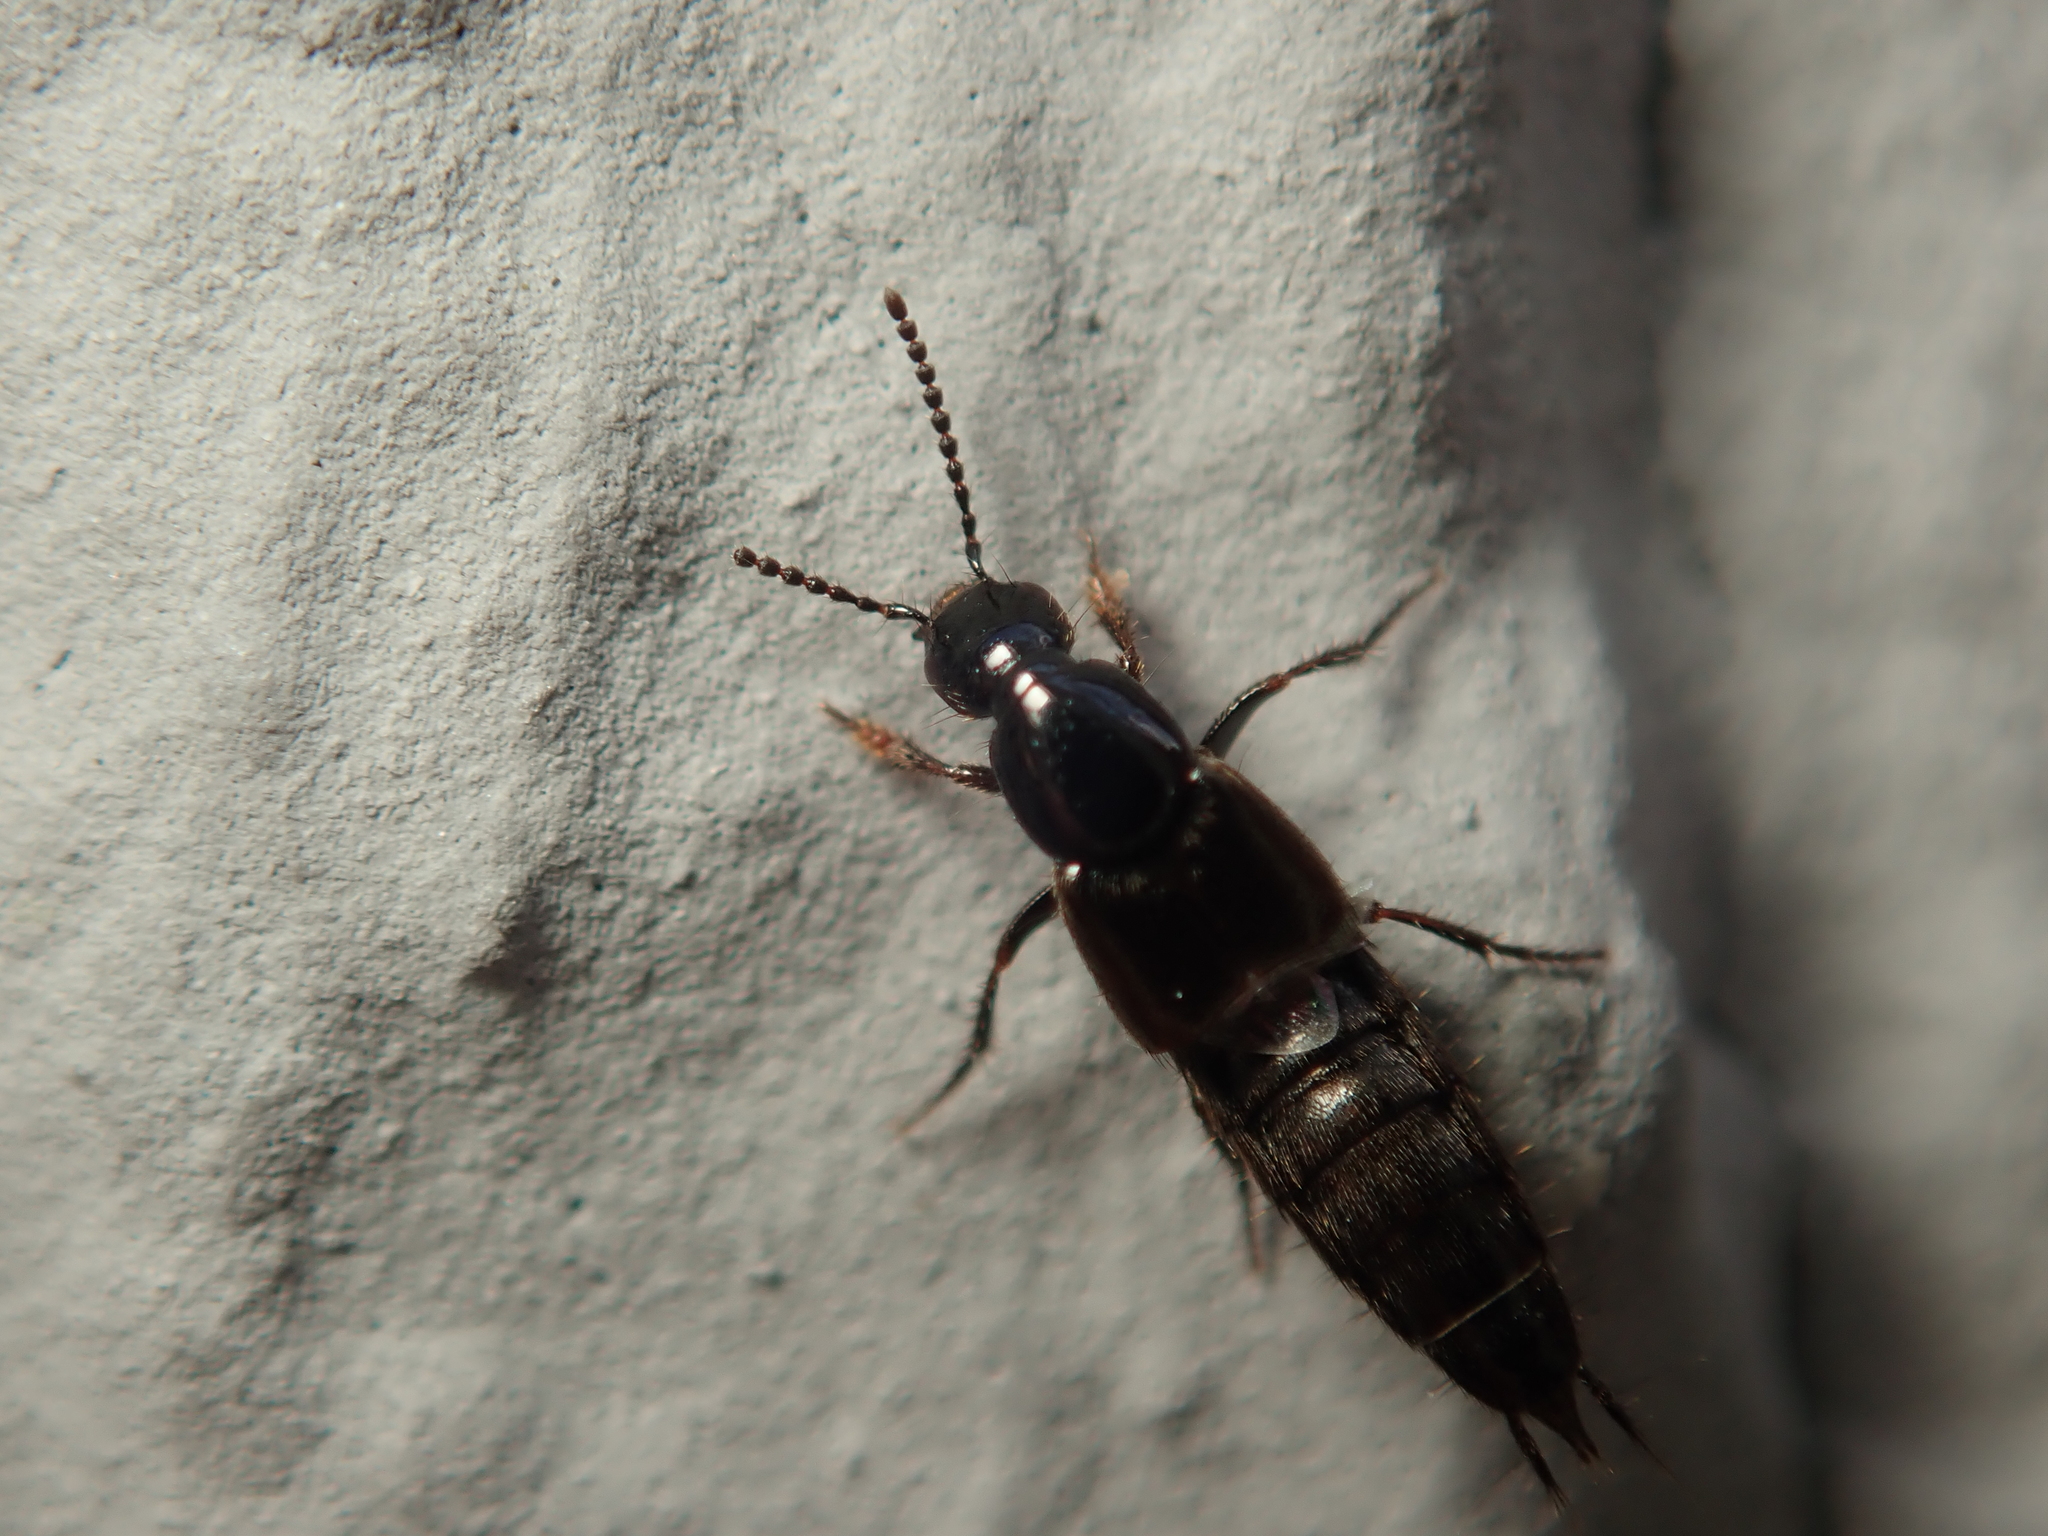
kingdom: Animalia
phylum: Arthropoda
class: Insecta
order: Coleoptera
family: Staphylinidae
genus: Philonthus
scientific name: Philonthus concinnus
